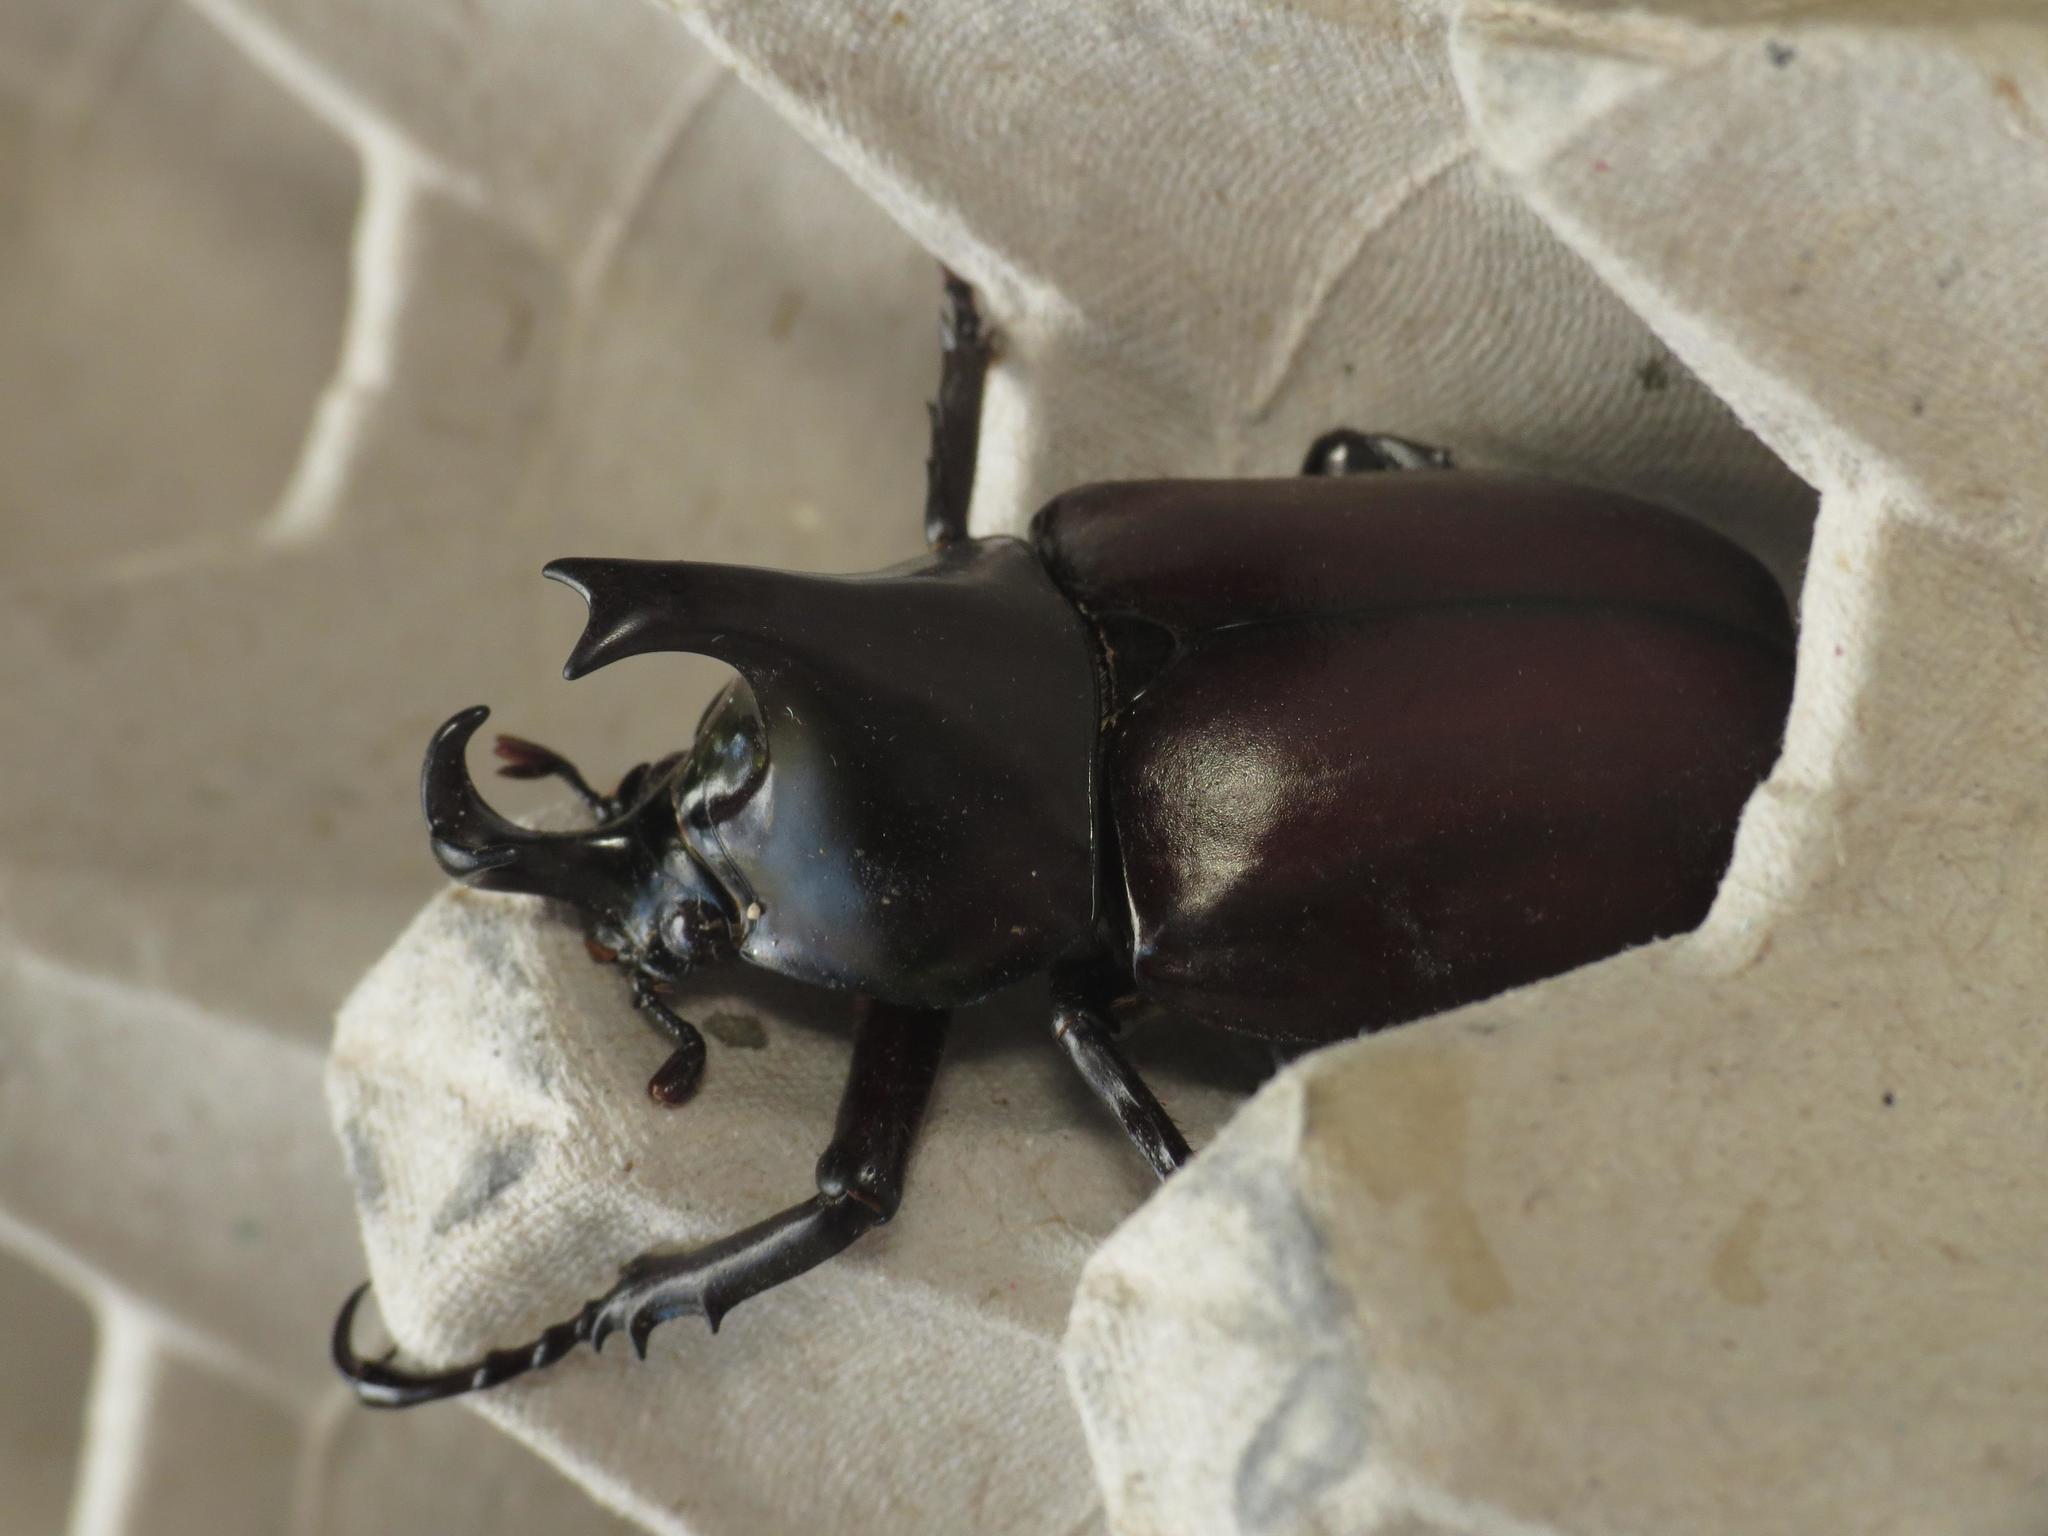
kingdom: Animalia
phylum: Arthropoda
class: Insecta
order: Coleoptera
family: Scarabaeidae
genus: Xylotrupes
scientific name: Xylotrupes australicus
